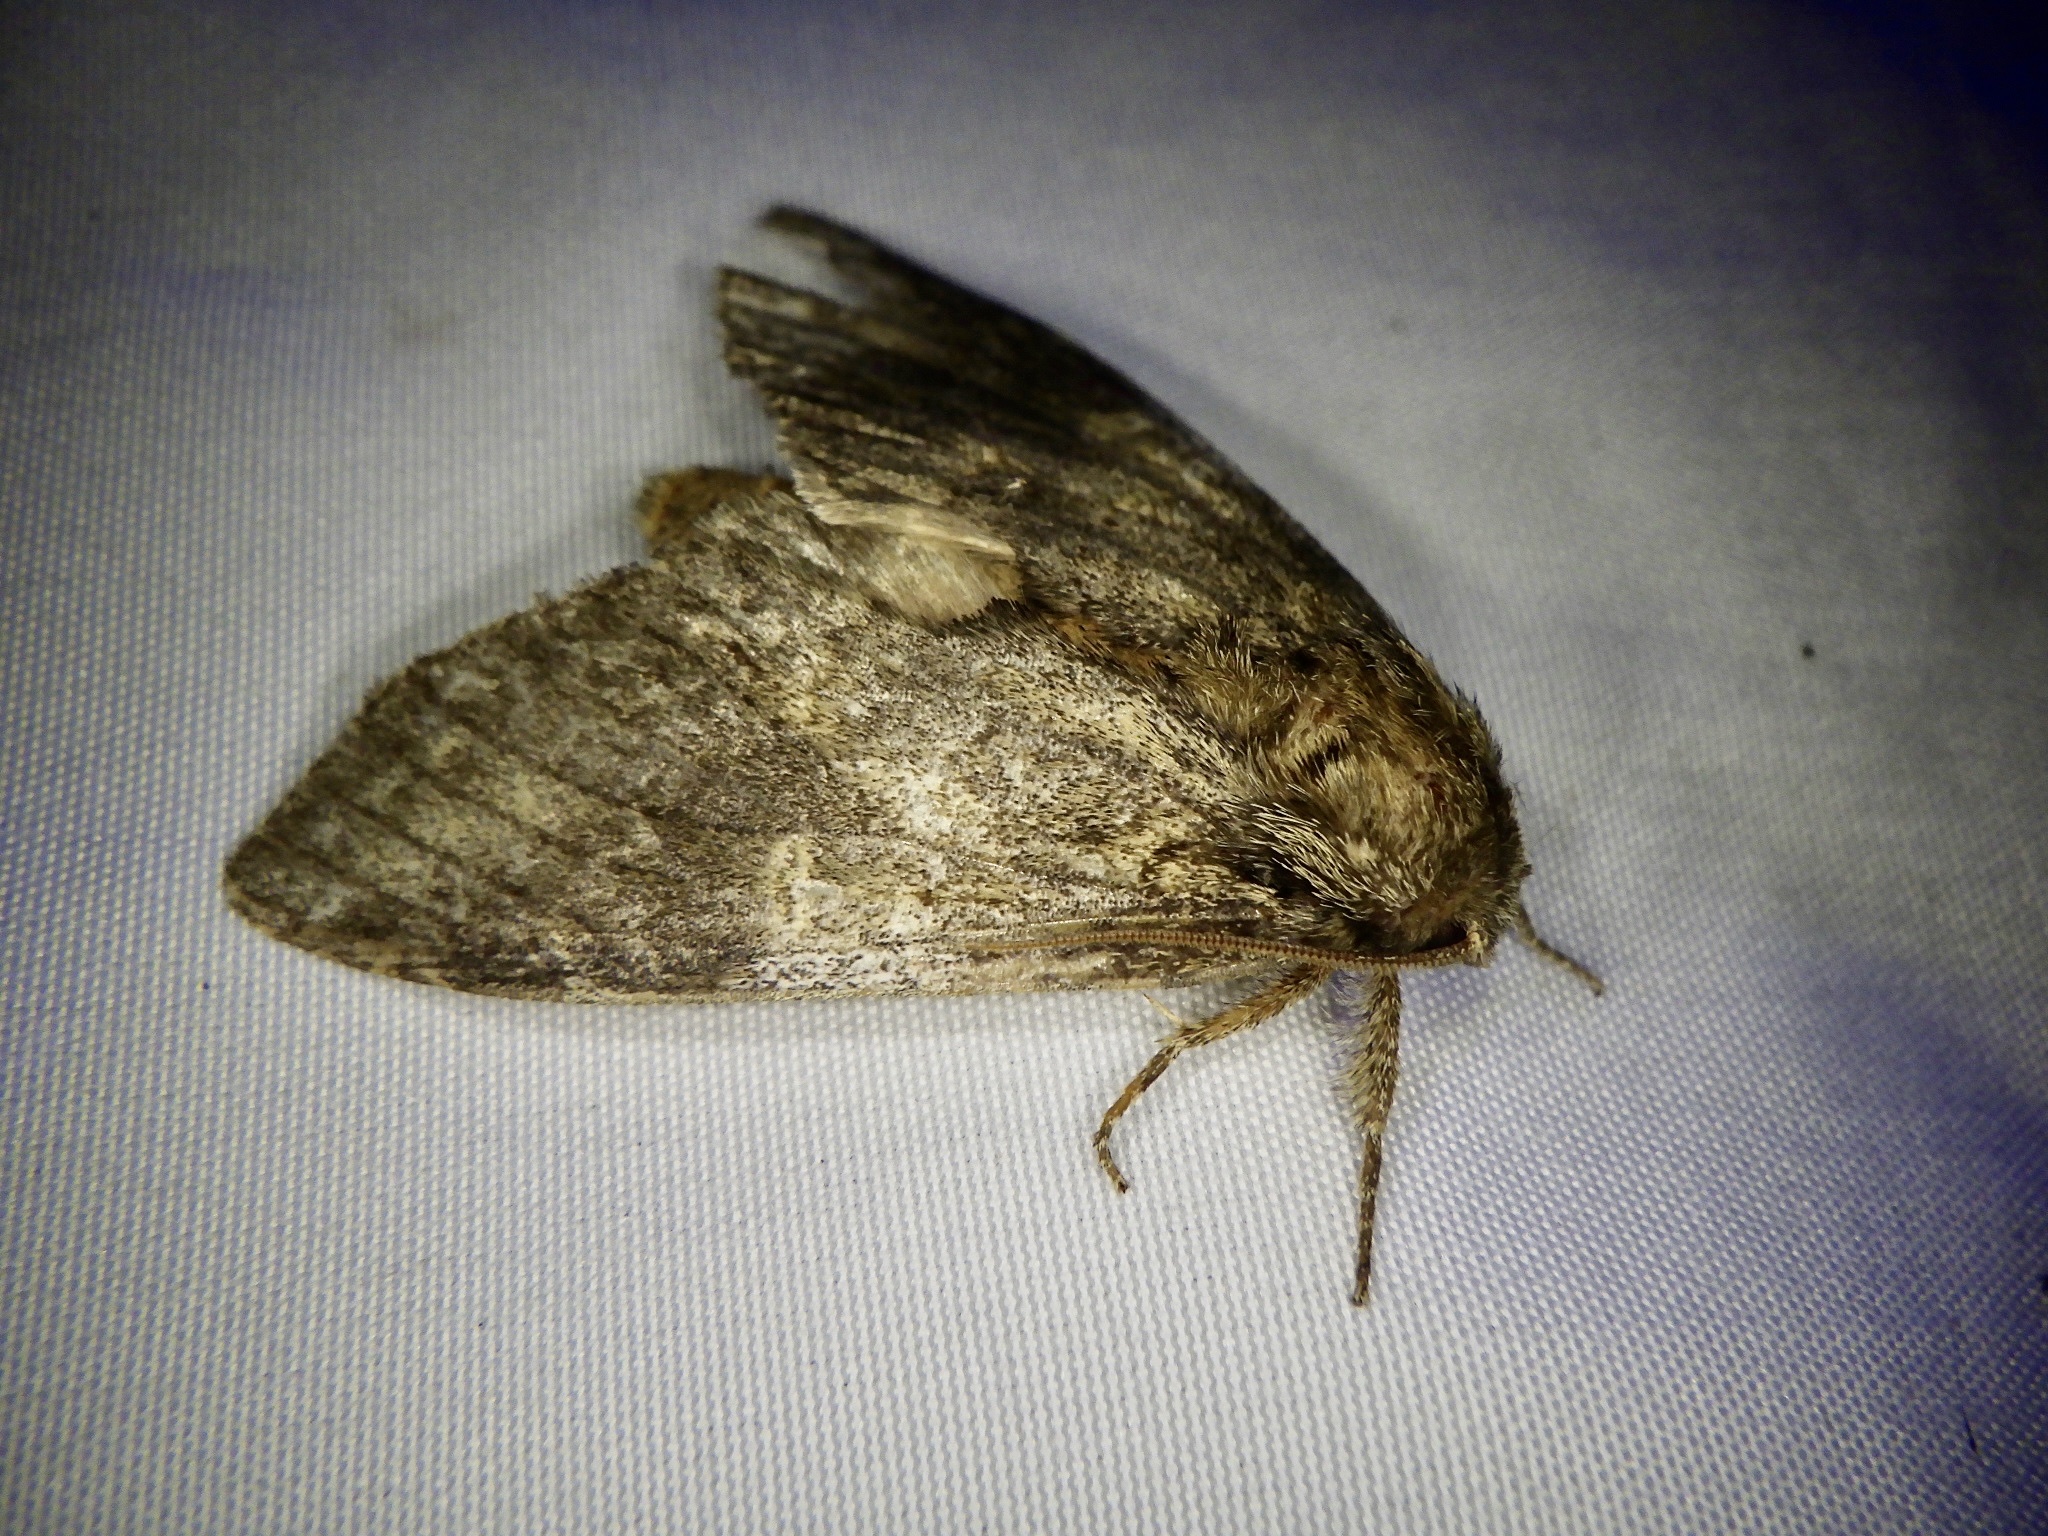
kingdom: Animalia
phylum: Arthropoda
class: Insecta
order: Lepidoptera
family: Notodontidae
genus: Peridea
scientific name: Peridea gigantea
